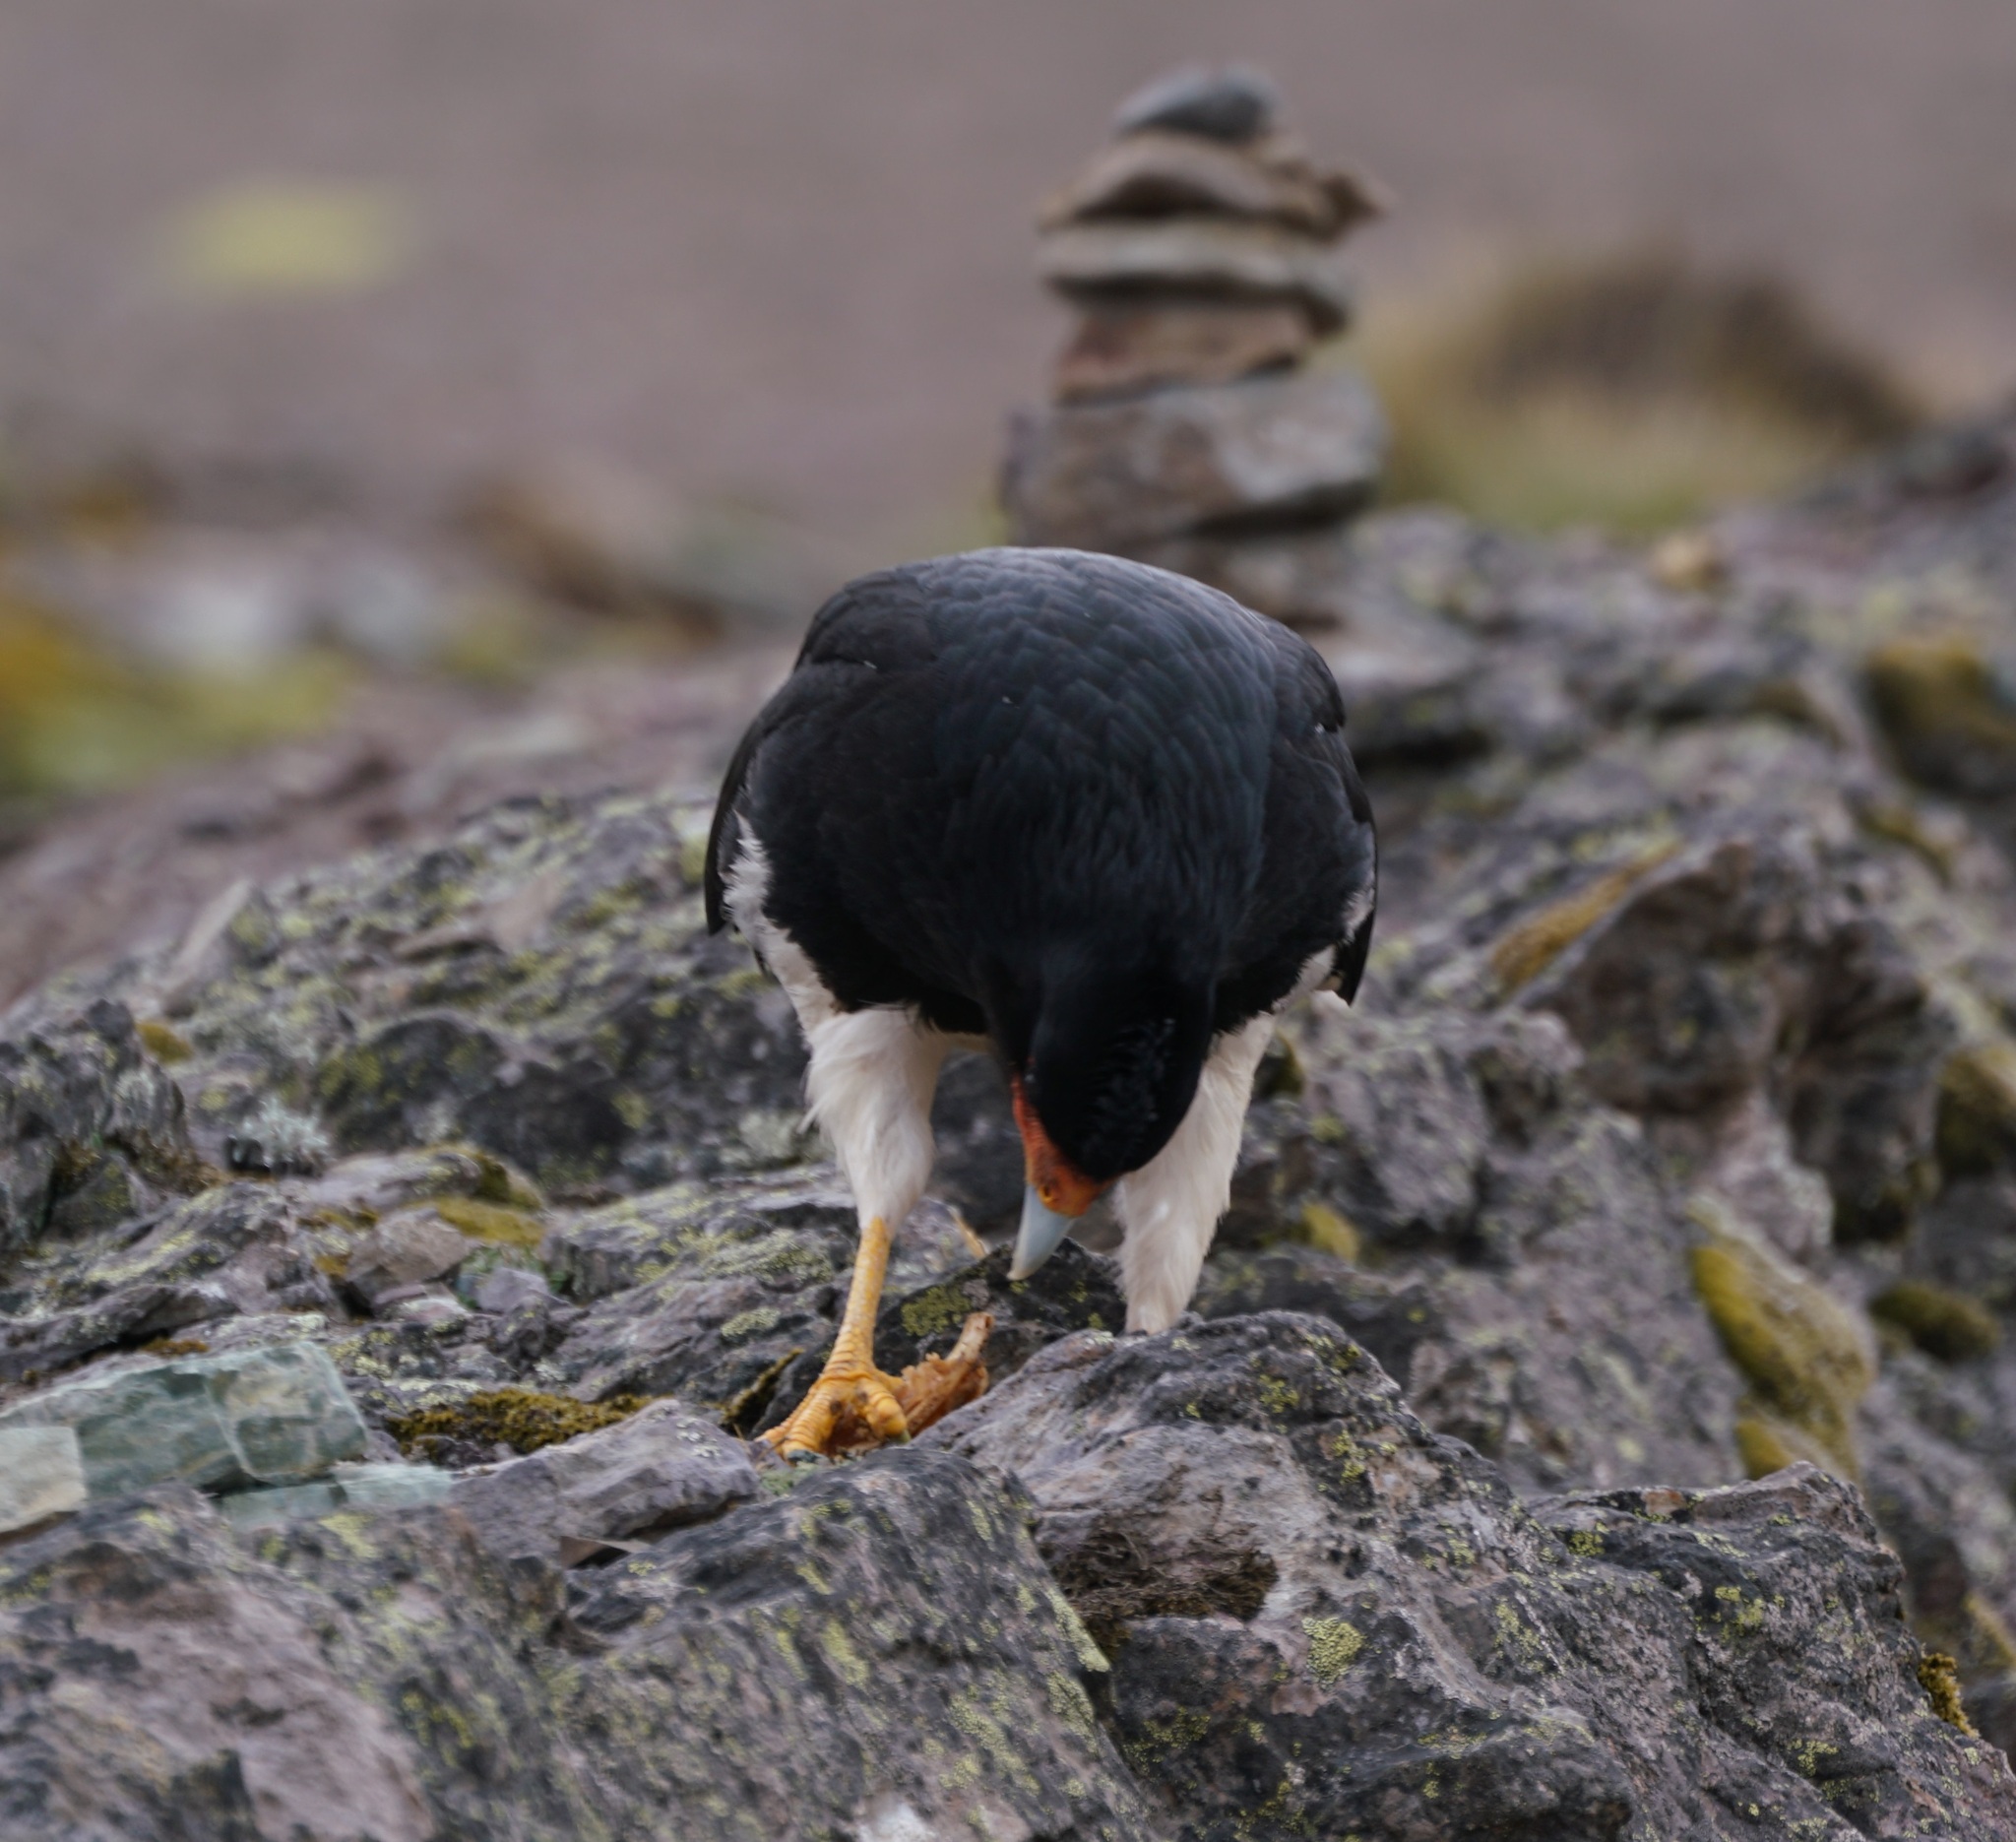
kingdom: Animalia
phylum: Chordata
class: Aves
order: Falconiformes
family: Falconidae
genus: Daptrius
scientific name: Daptrius
